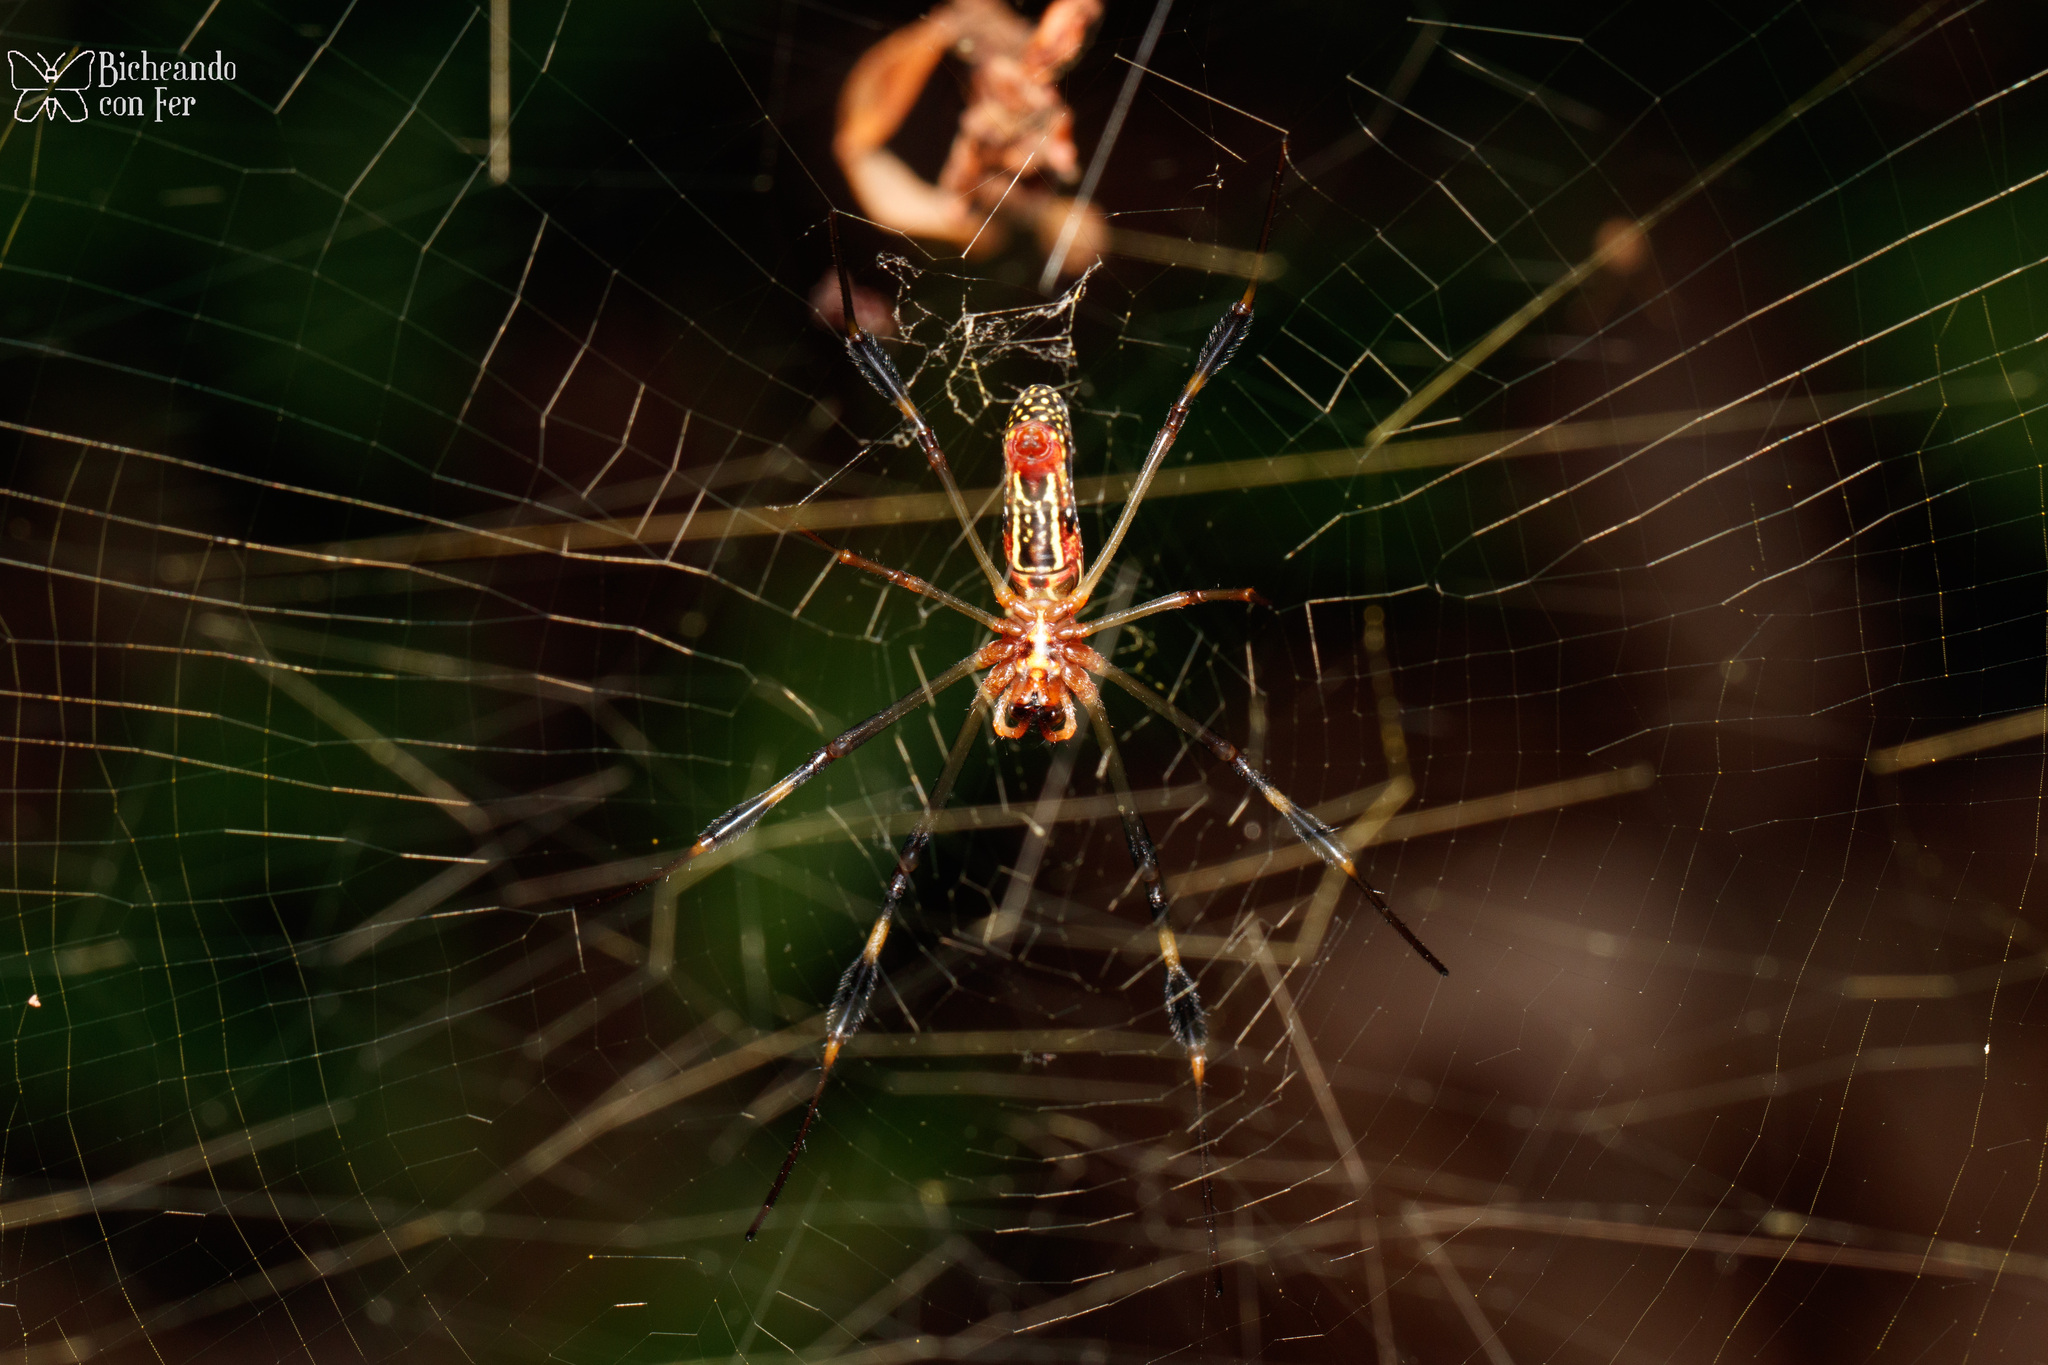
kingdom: Animalia
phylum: Arthropoda
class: Arachnida
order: Araneae
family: Araneidae
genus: Trichonephila
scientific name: Trichonephila clavipes
